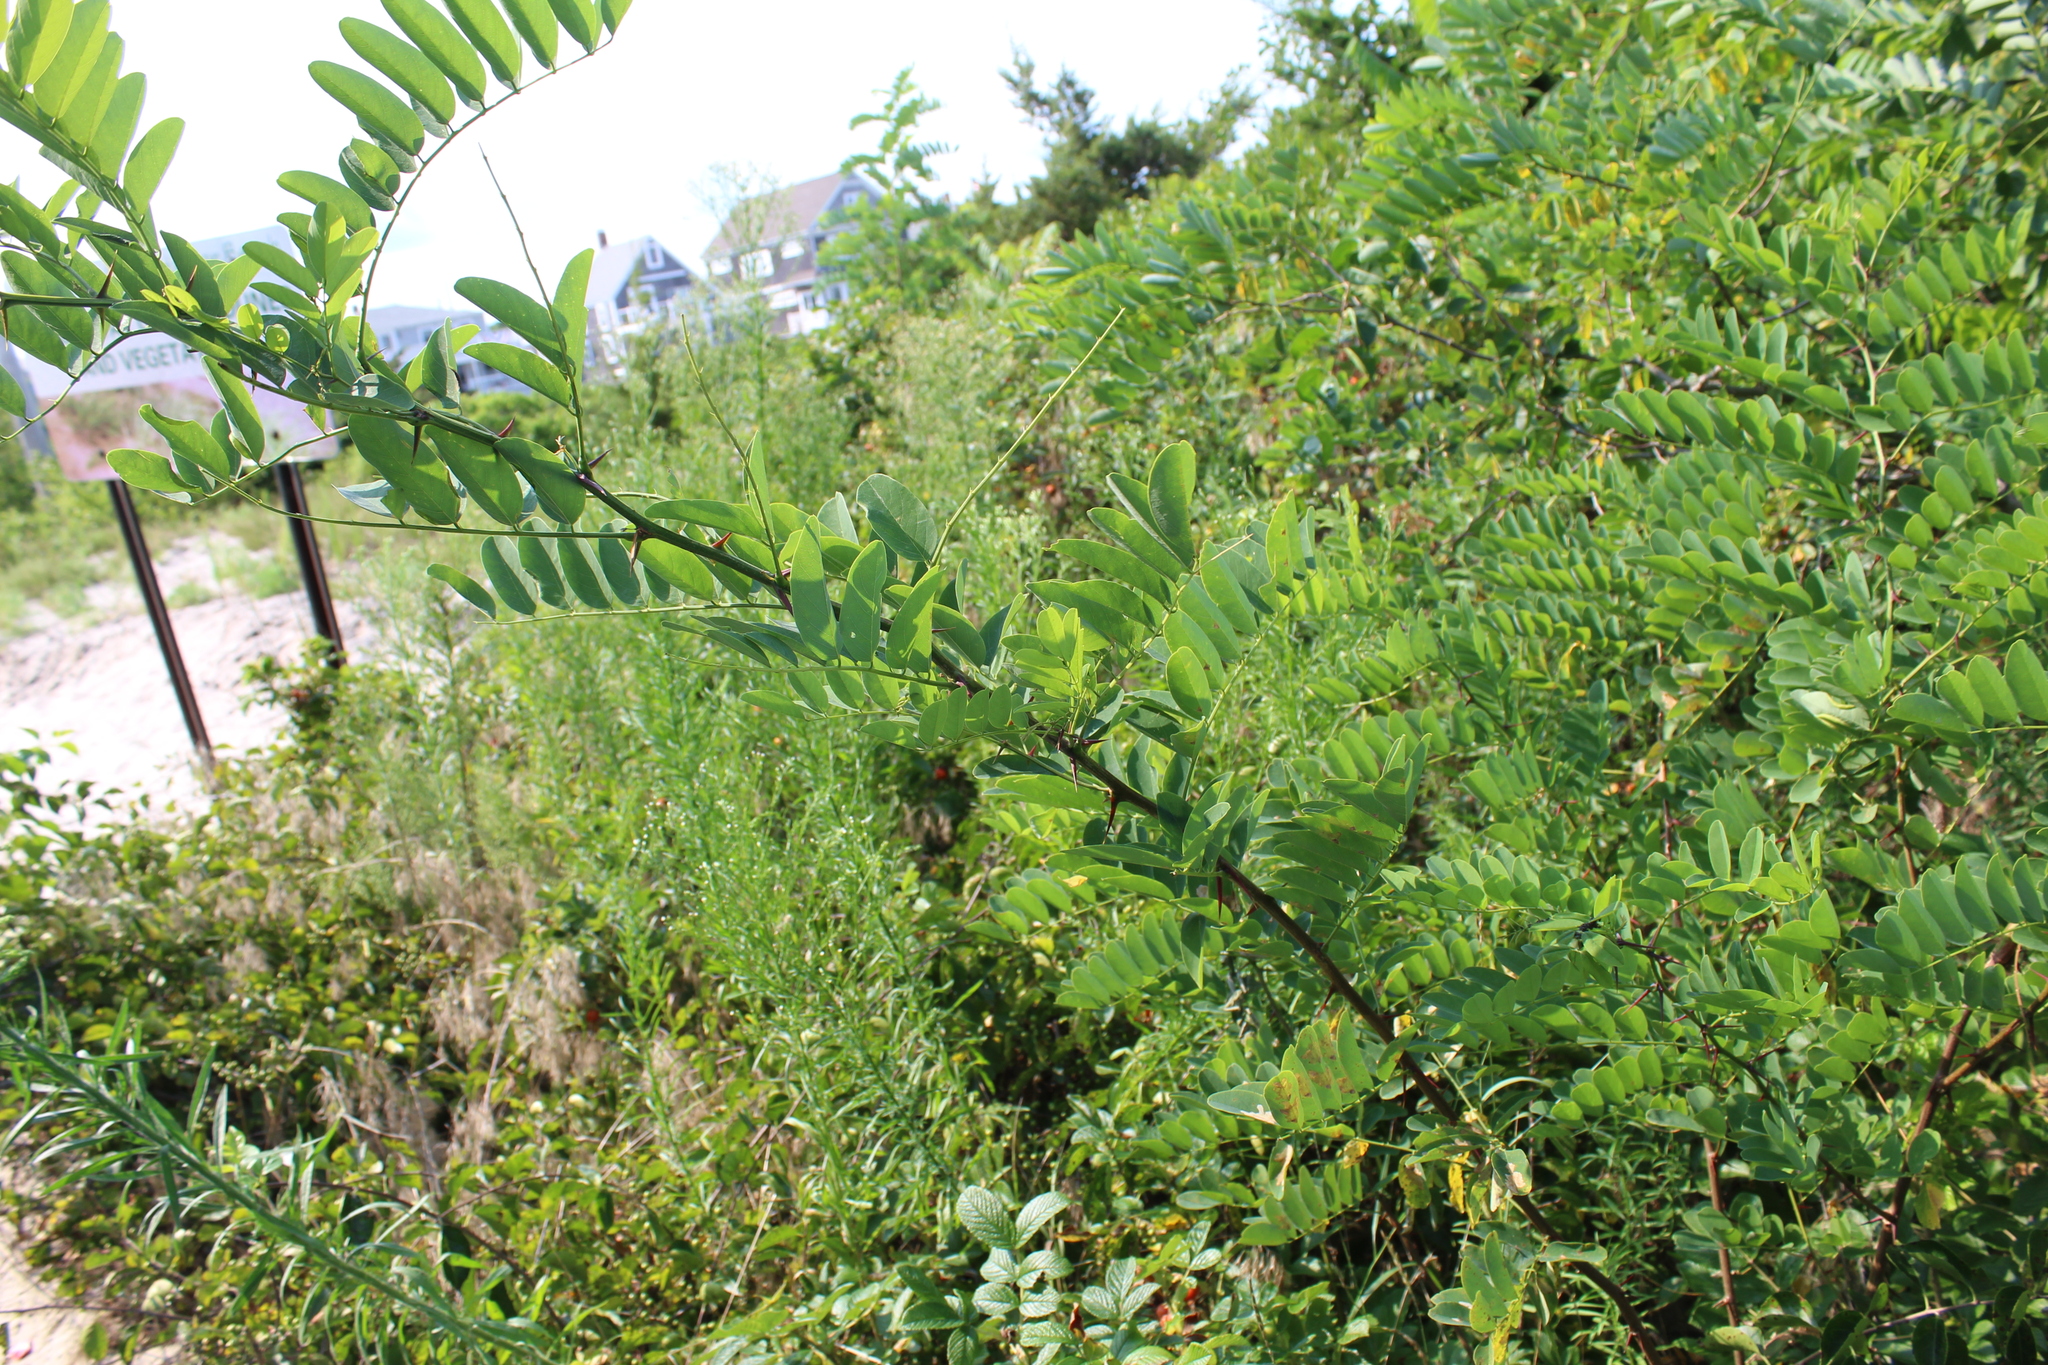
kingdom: Animalia
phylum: Arthropoda
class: Insecta
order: Lepidoptera
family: Gracillariidae
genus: Parectopa
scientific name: Parectopa robiniella
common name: Locust digitate leafminer
